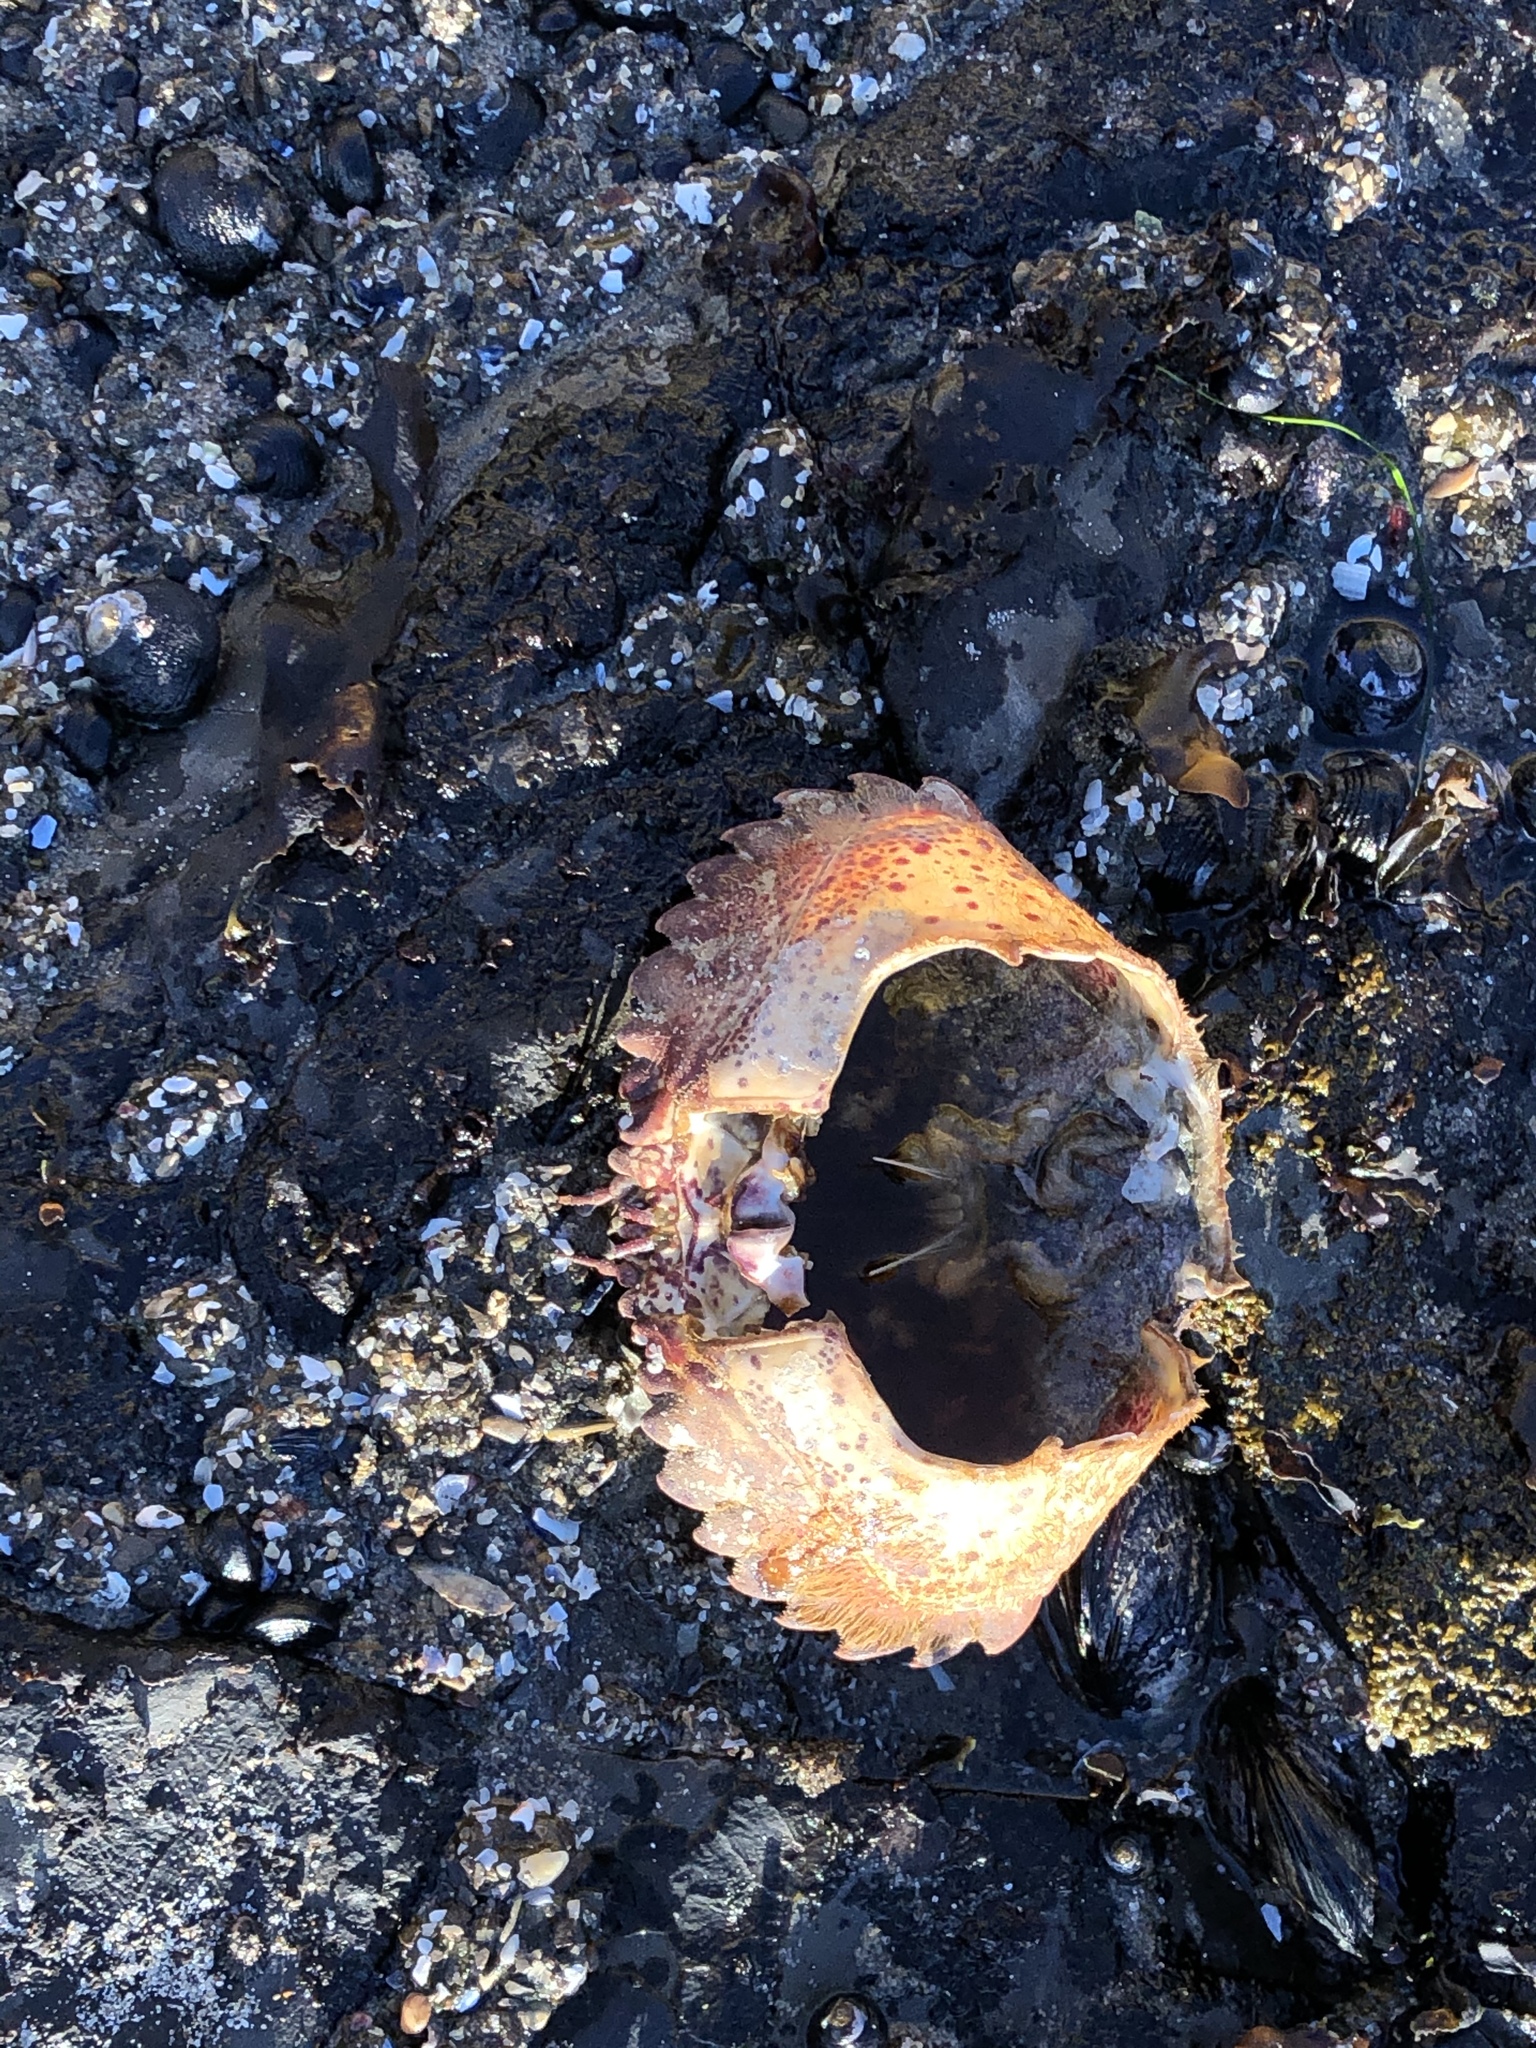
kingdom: Animalia
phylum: Arthropoda
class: Malacostraca
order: Decapoda
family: Cancridae
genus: Romaleon
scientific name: Romaleon antennarium
